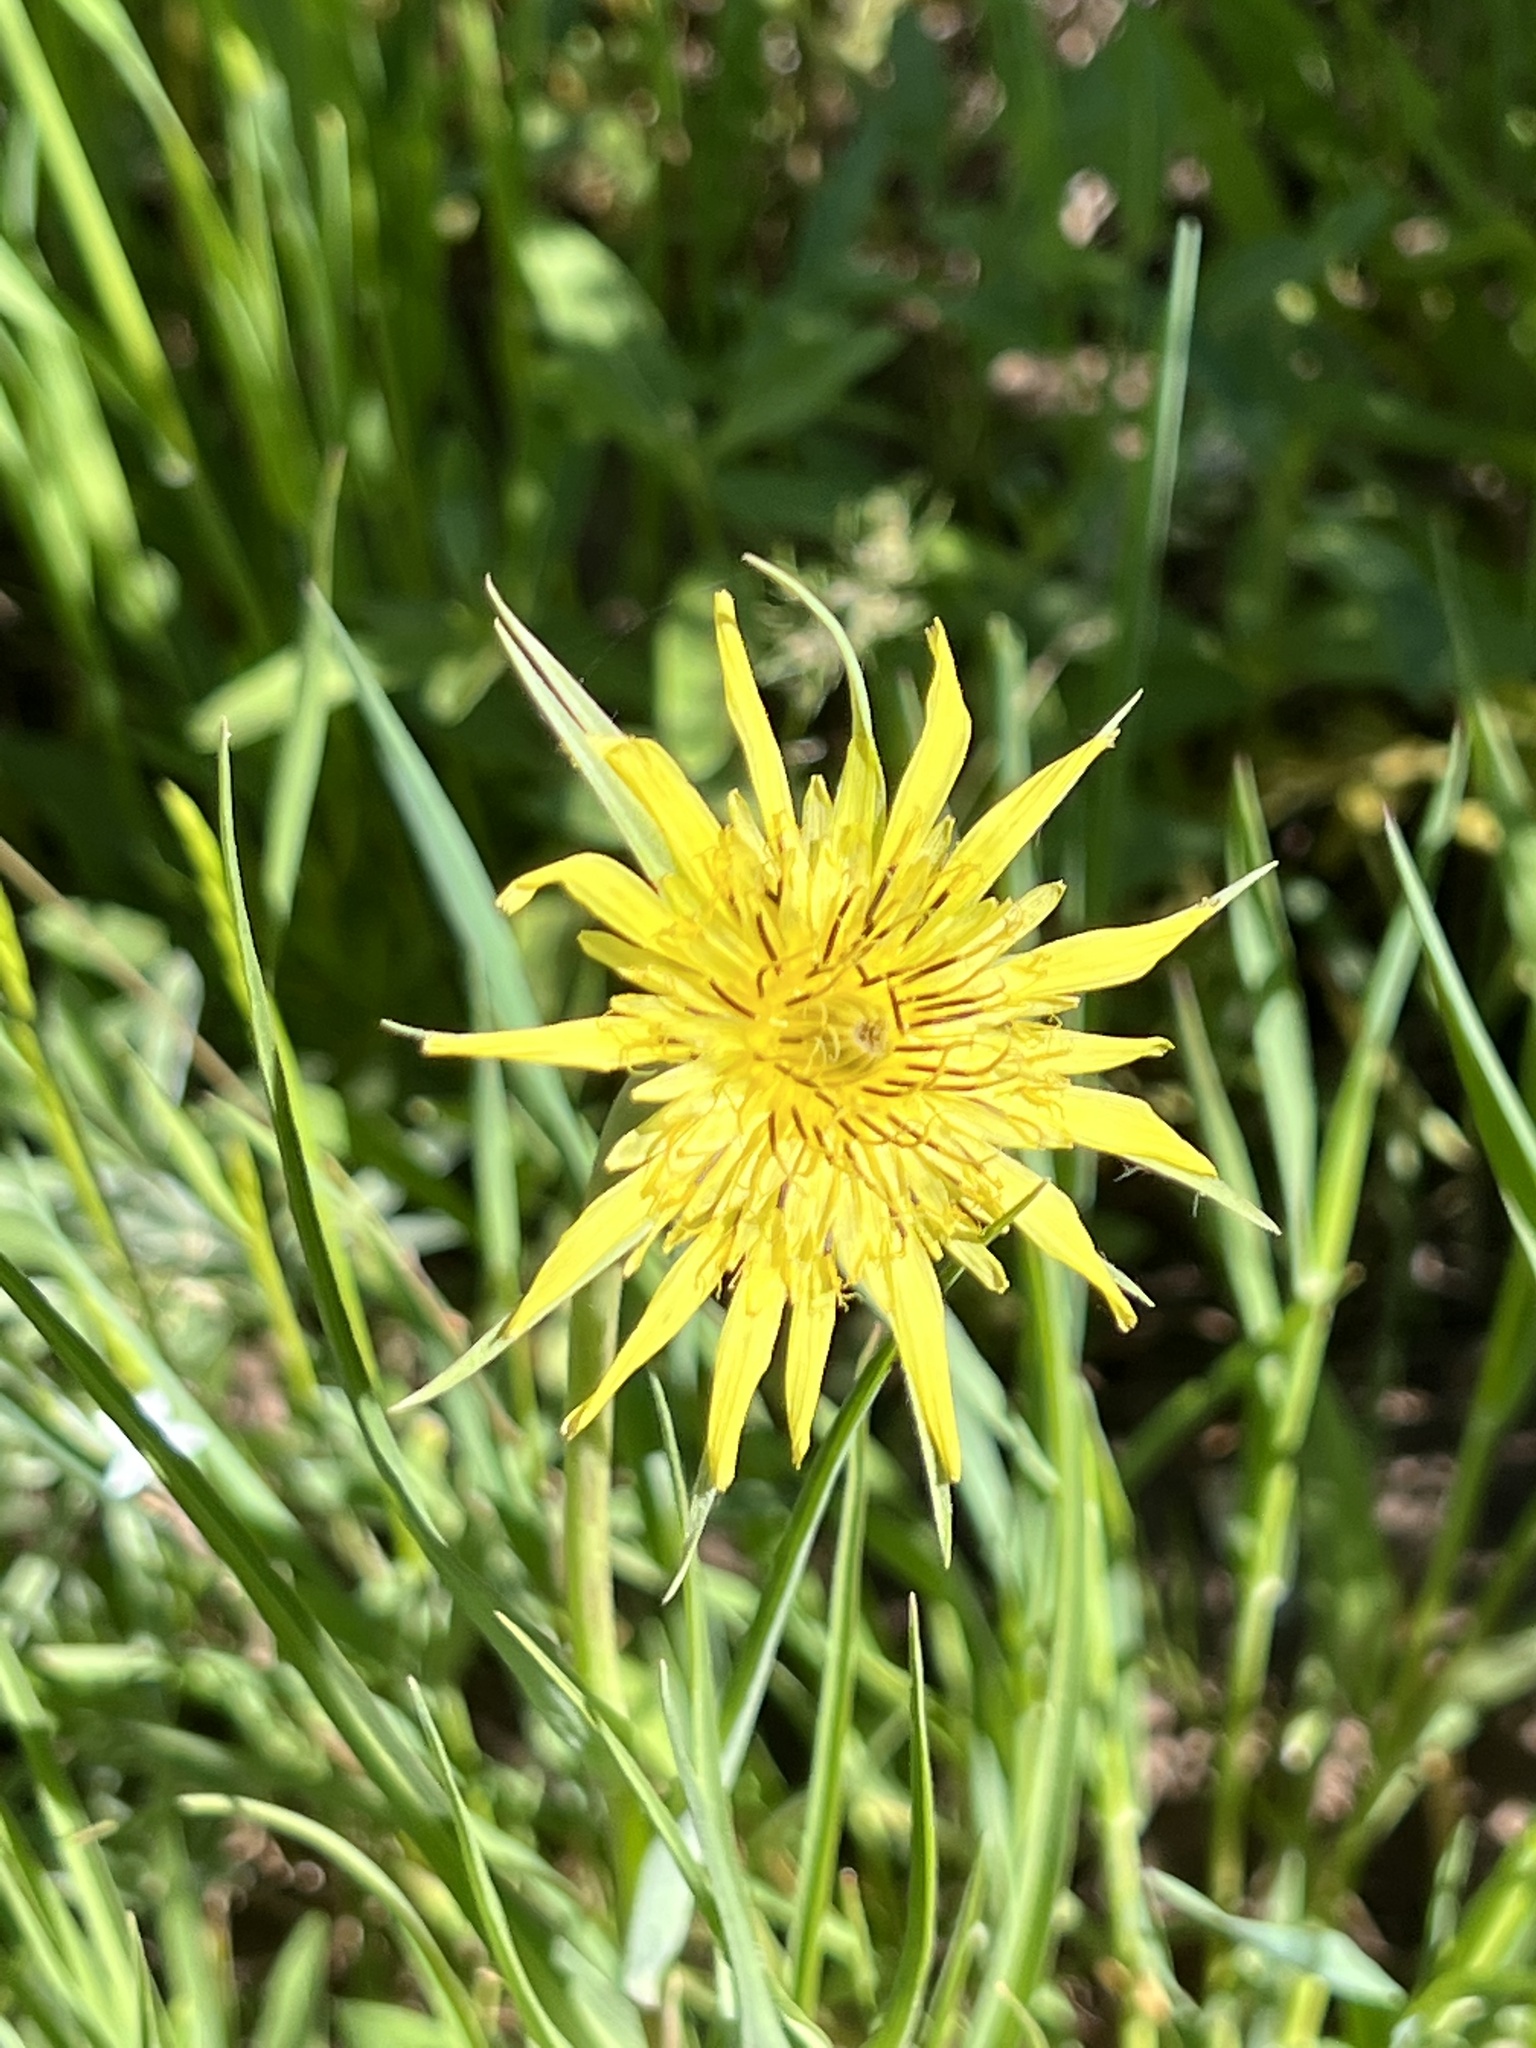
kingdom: Plantae
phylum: Tracheophyta
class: Magnoliopsida
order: Asterales
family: Asteraceae
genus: Tragopogon
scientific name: Tragopogon dubius
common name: Yellow salsify
